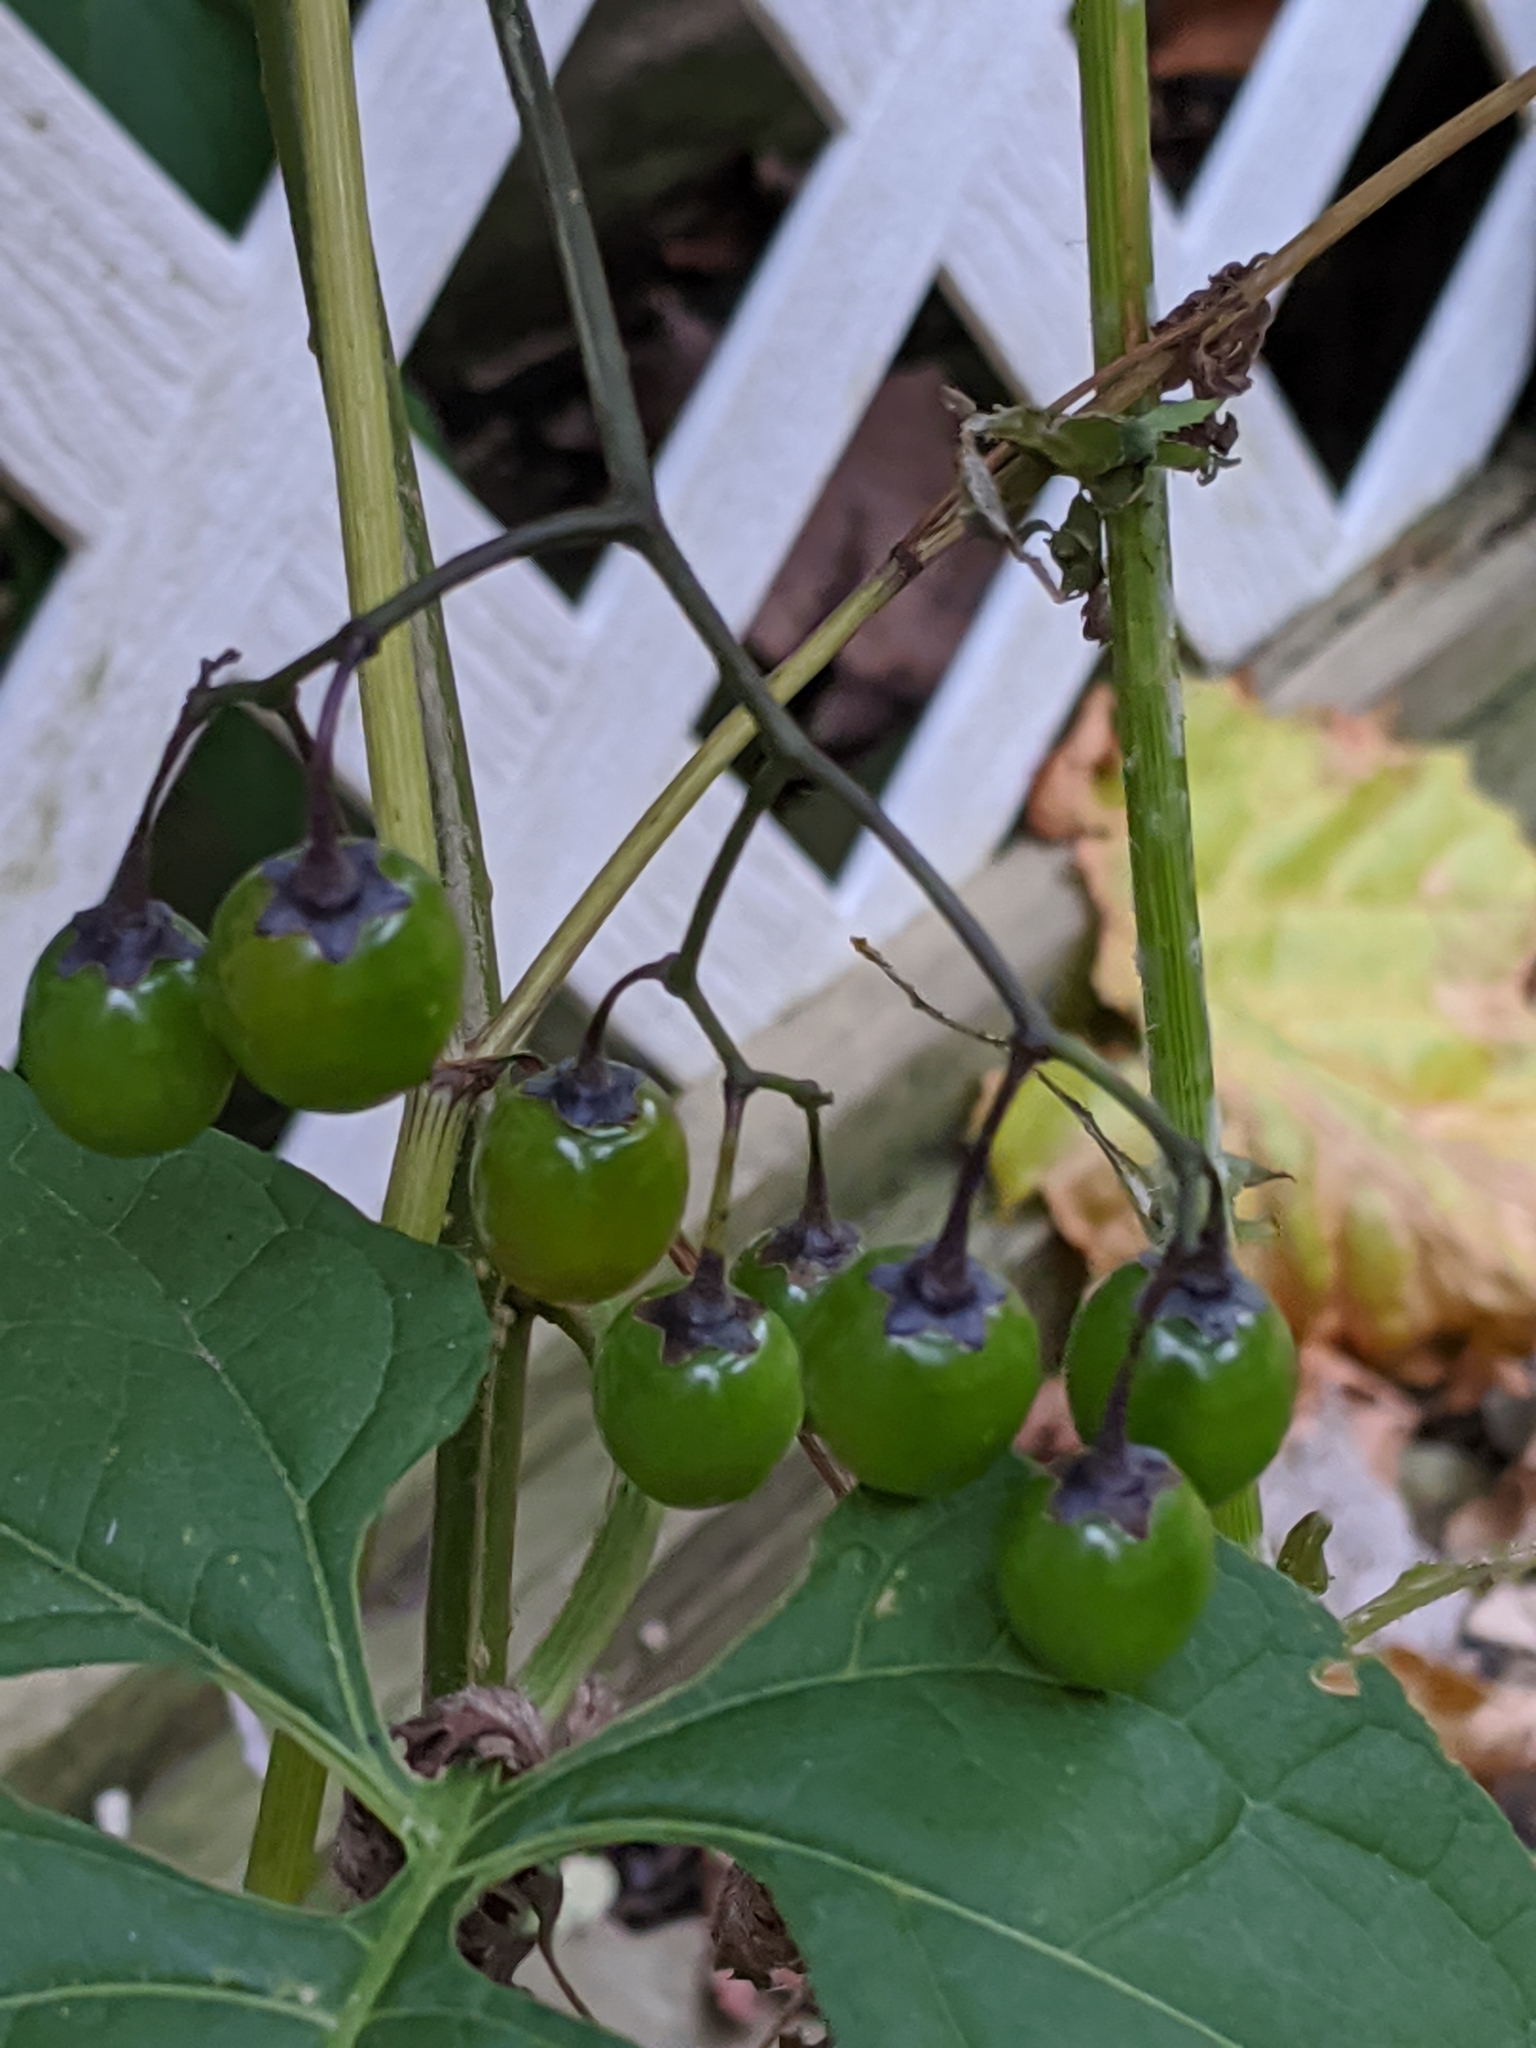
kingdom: Plantae
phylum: Tracheophyta
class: Magnoliopsida
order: Solanales
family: Solanaceae
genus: Solanum
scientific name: Solanum dulcamara
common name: Climbing nightshade
